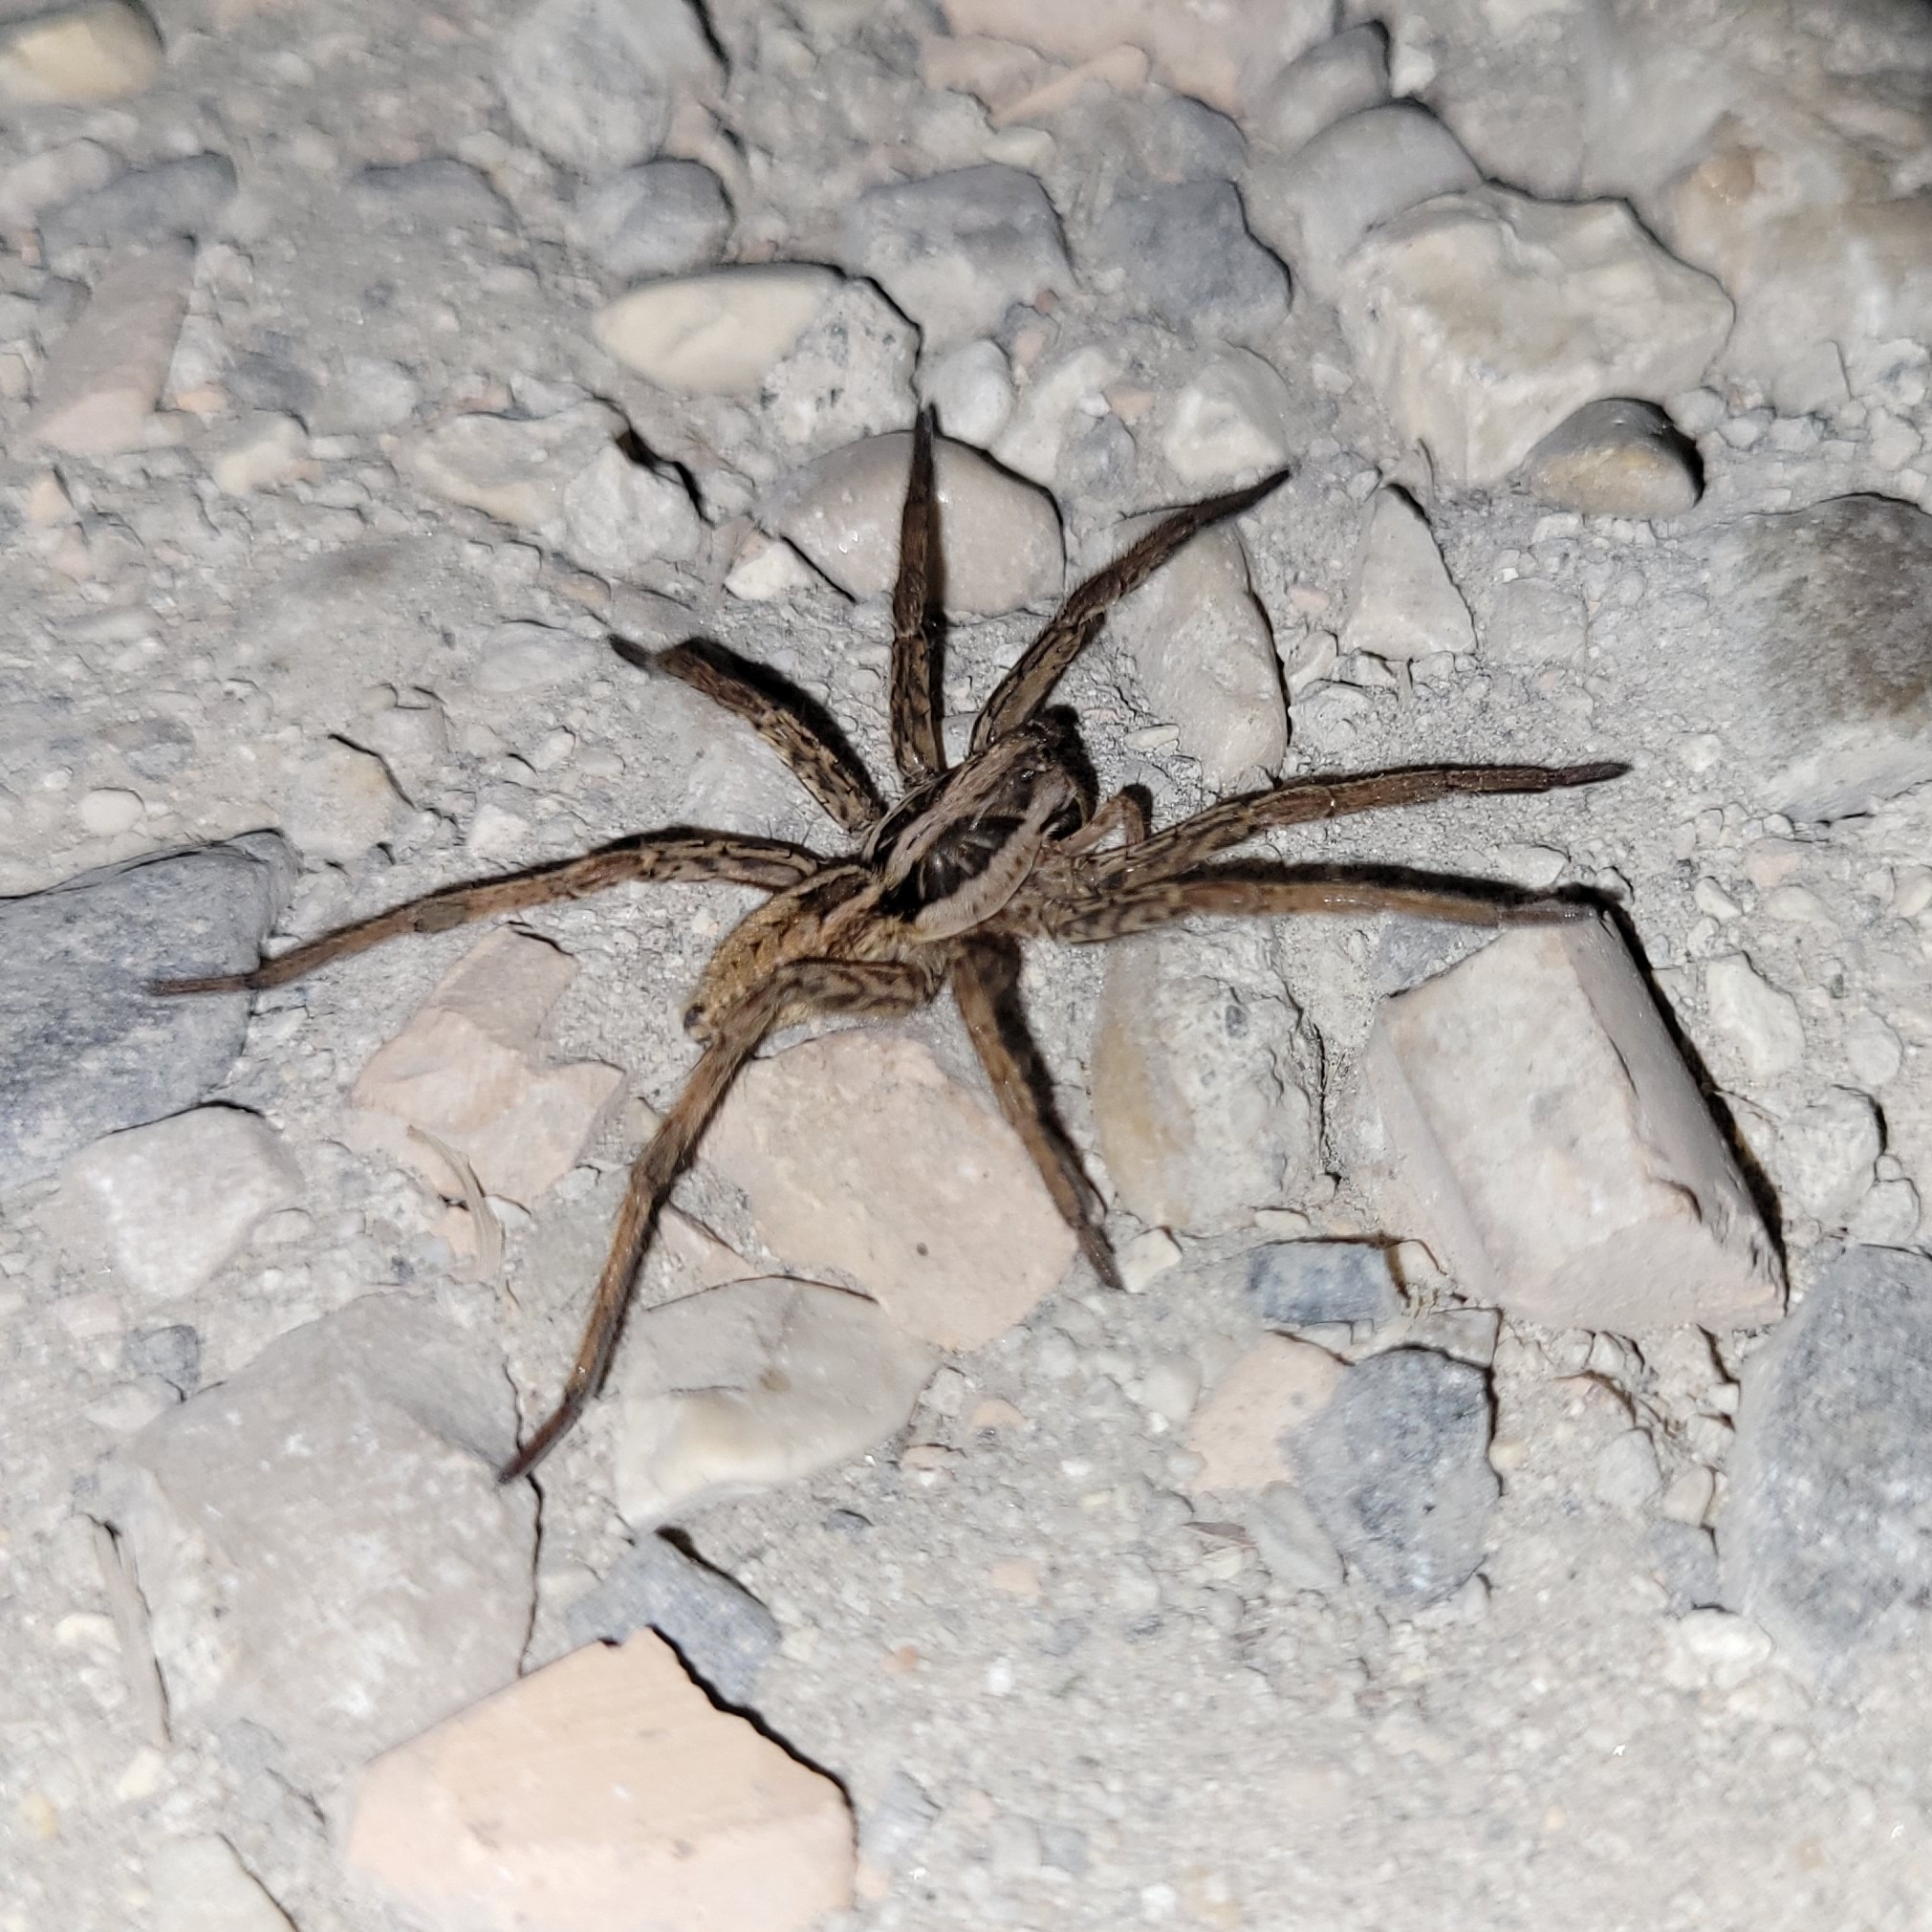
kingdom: Animalia
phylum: Arthropoda
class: Arachnida
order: Araneae
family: Lycosidae
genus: Hogna
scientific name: Hogna radiata
